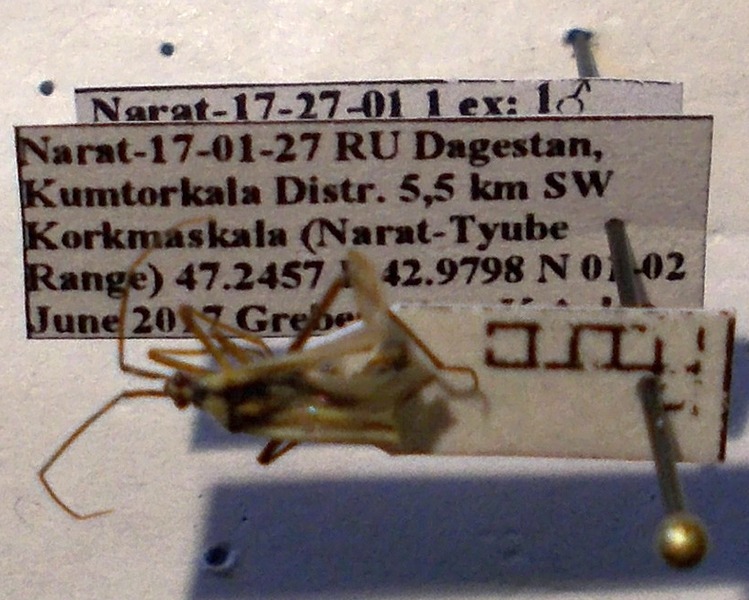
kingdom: Animalia
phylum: Arthropoda
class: Insecta
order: Hemiptera
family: Miridae
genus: Leptopterna
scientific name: Leptopterna dolabrata
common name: Meadow plant bug
